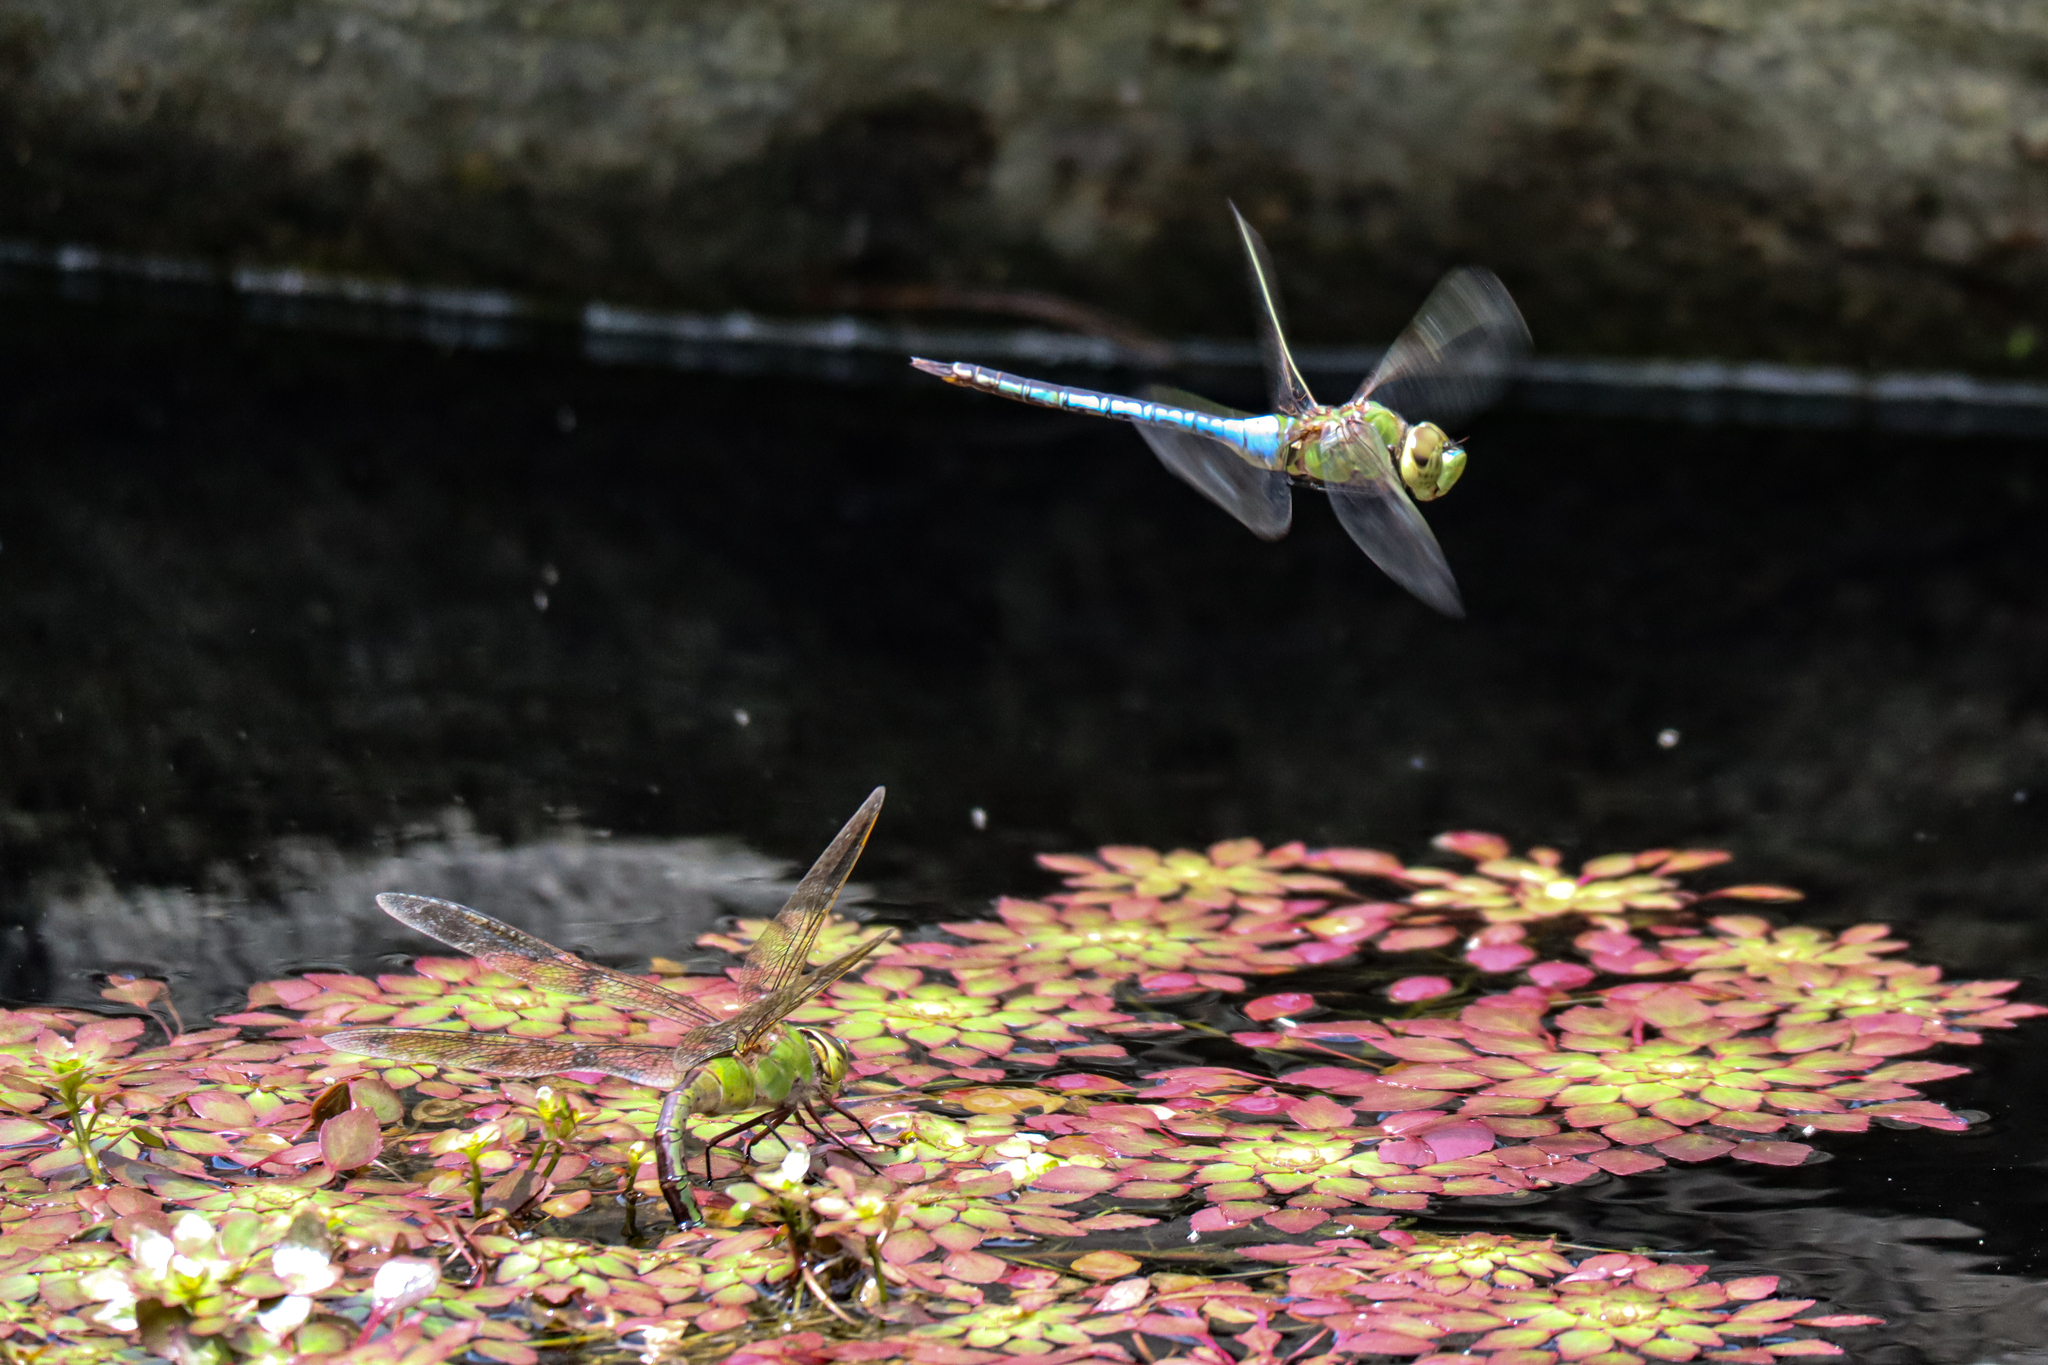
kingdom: Animalia
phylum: Arthropoda
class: Insecta
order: Odonata
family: Aeshnidae
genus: Anax
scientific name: Anax junius
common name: Common green darner
